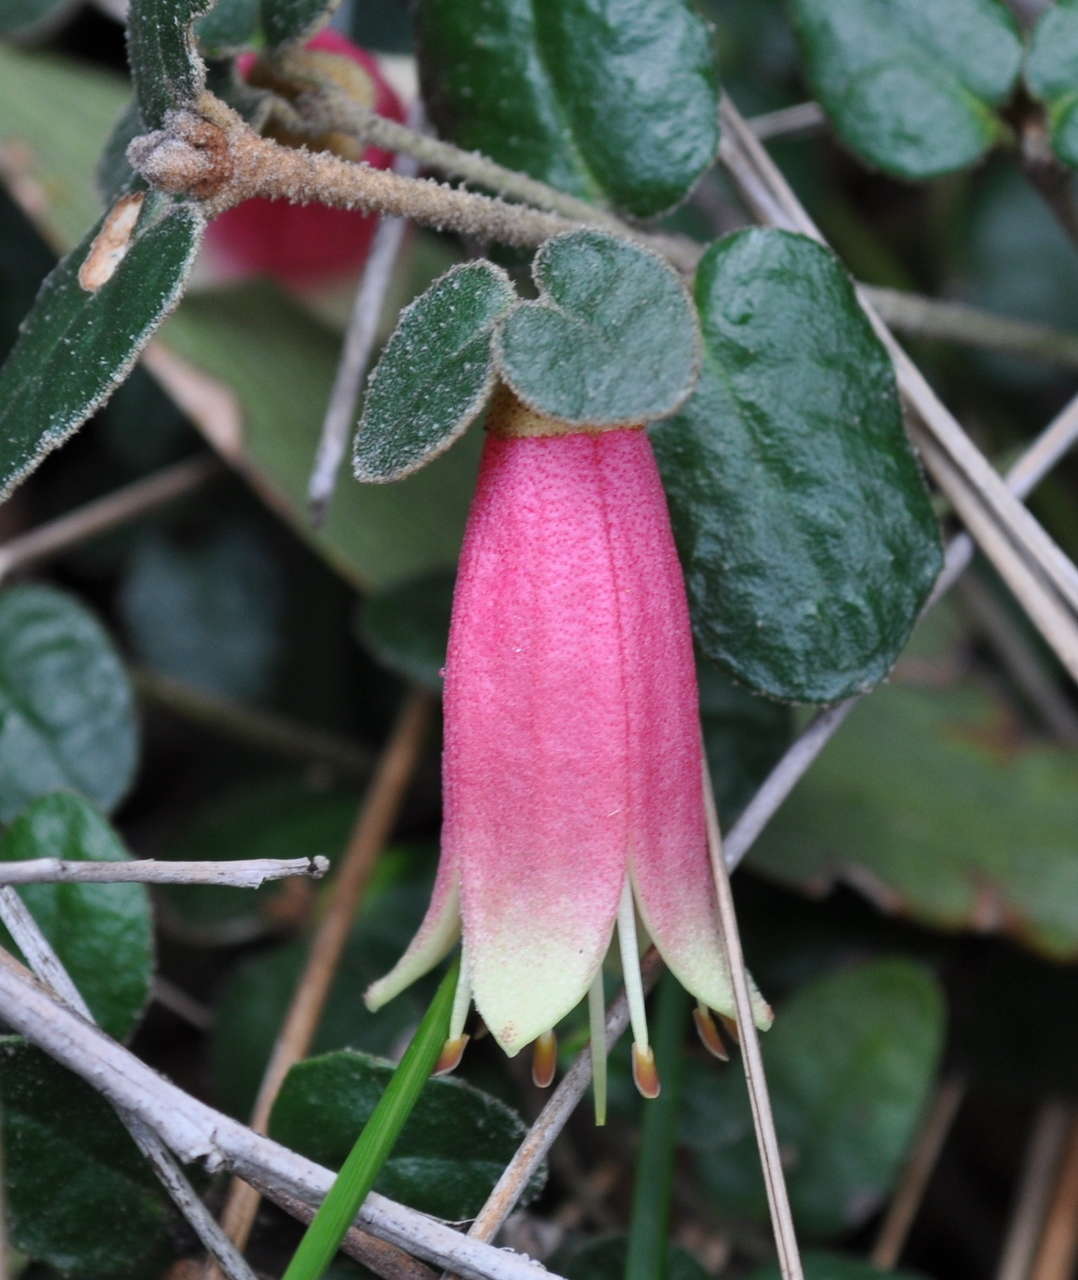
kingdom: Plantae
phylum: Tracheophyta
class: Magnoliopsida
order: Sapindales
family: Rutaceae
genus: Correa
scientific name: Correa reflexa
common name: Common correa
